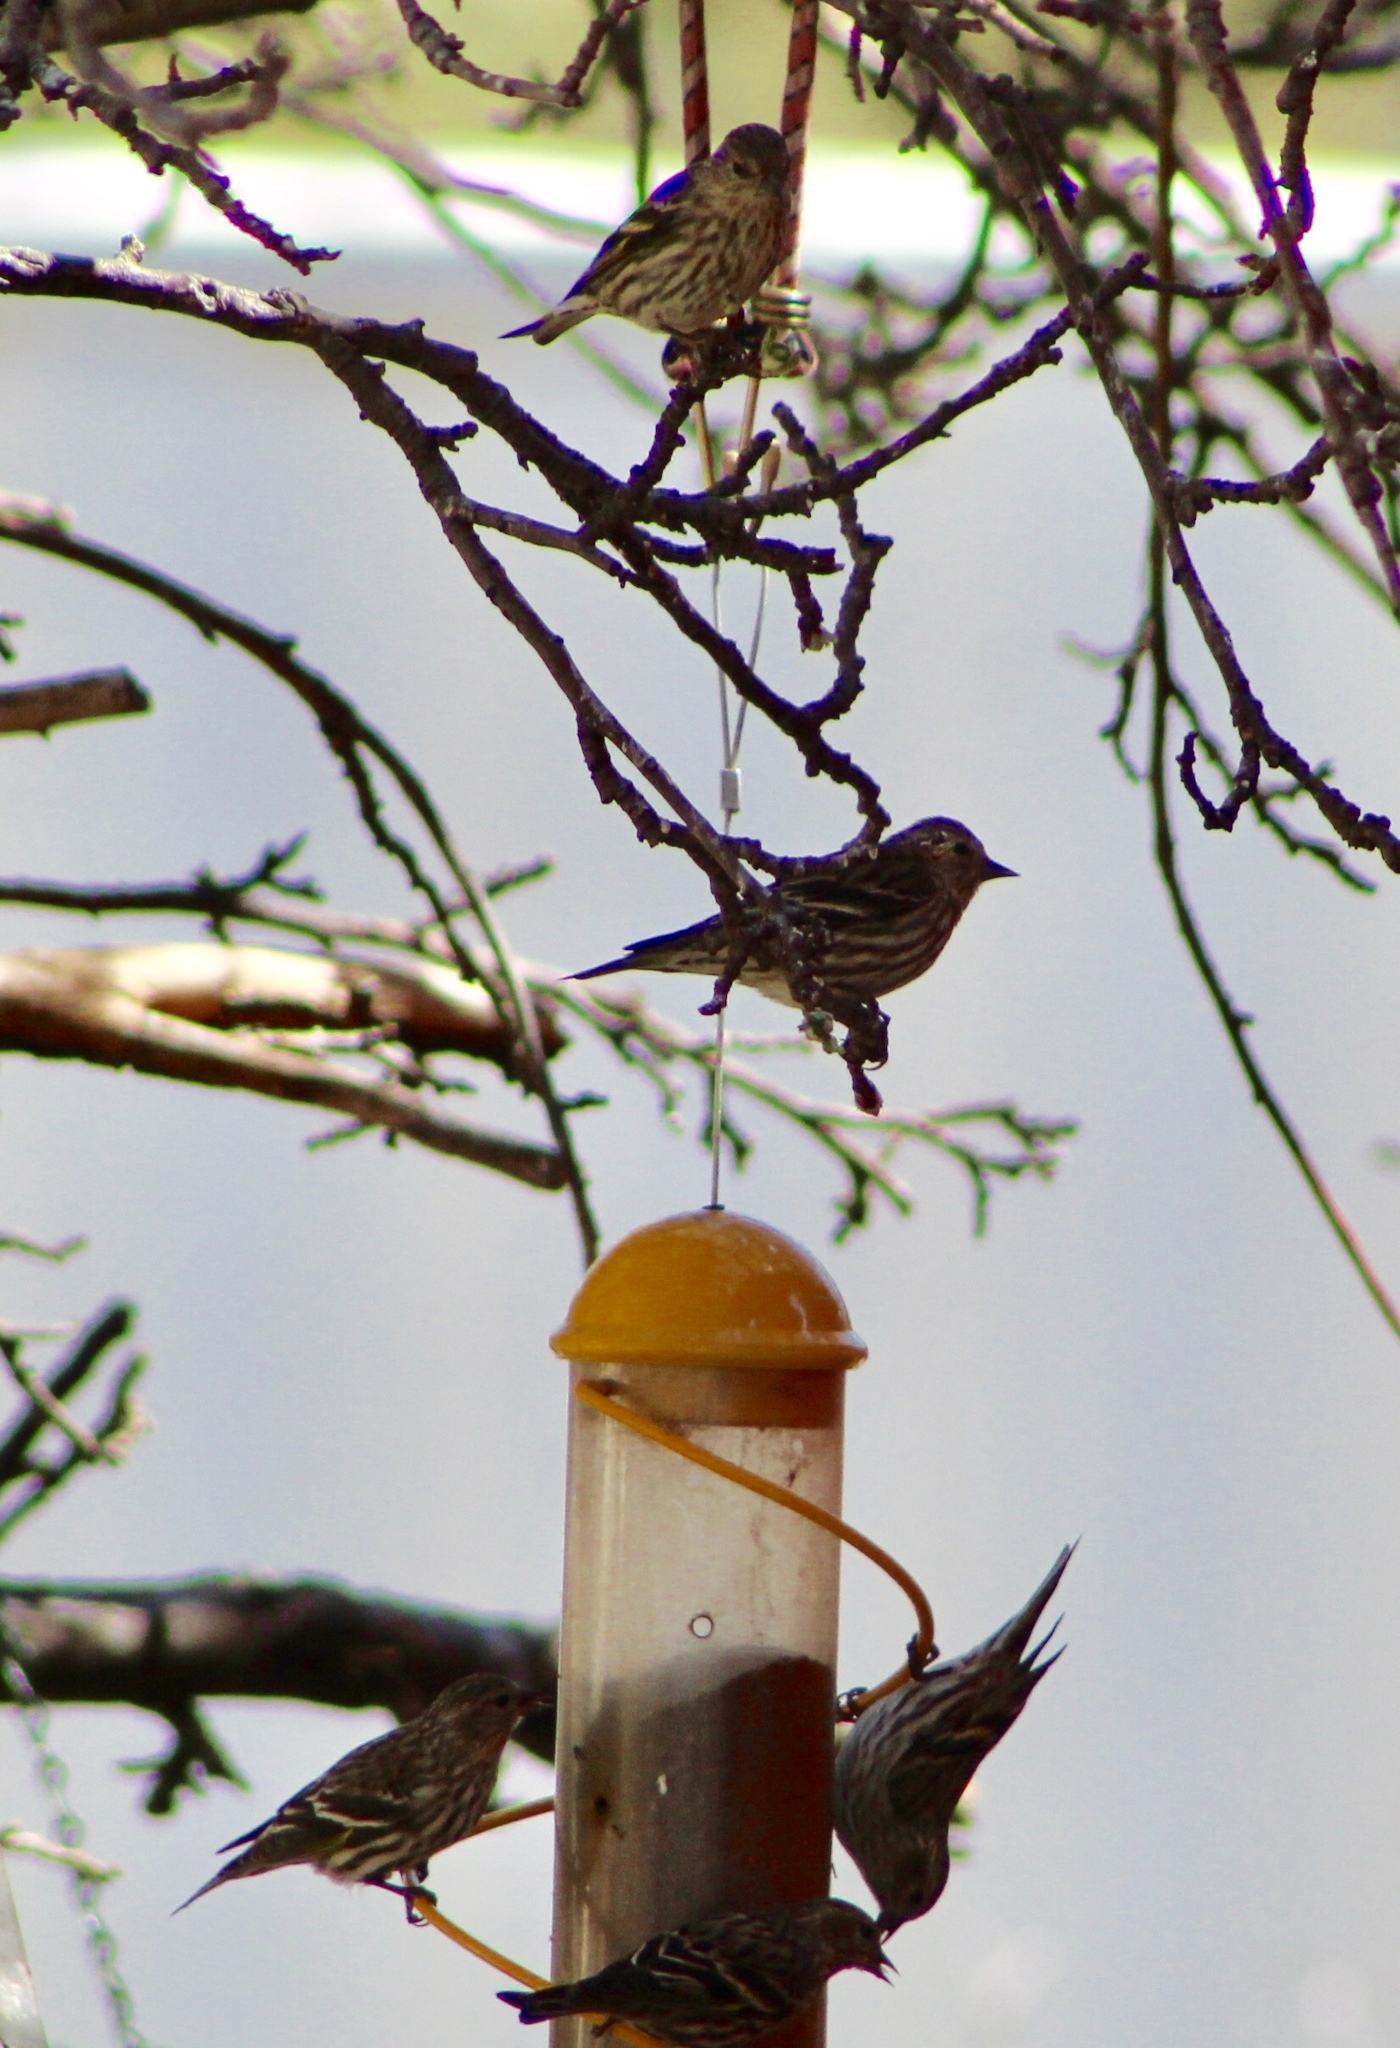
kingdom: Animalia
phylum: Chordata
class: Aves
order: Passeriformes
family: Fringillidae
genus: Spinus
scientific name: Spinus pinus
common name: Pine siskin
